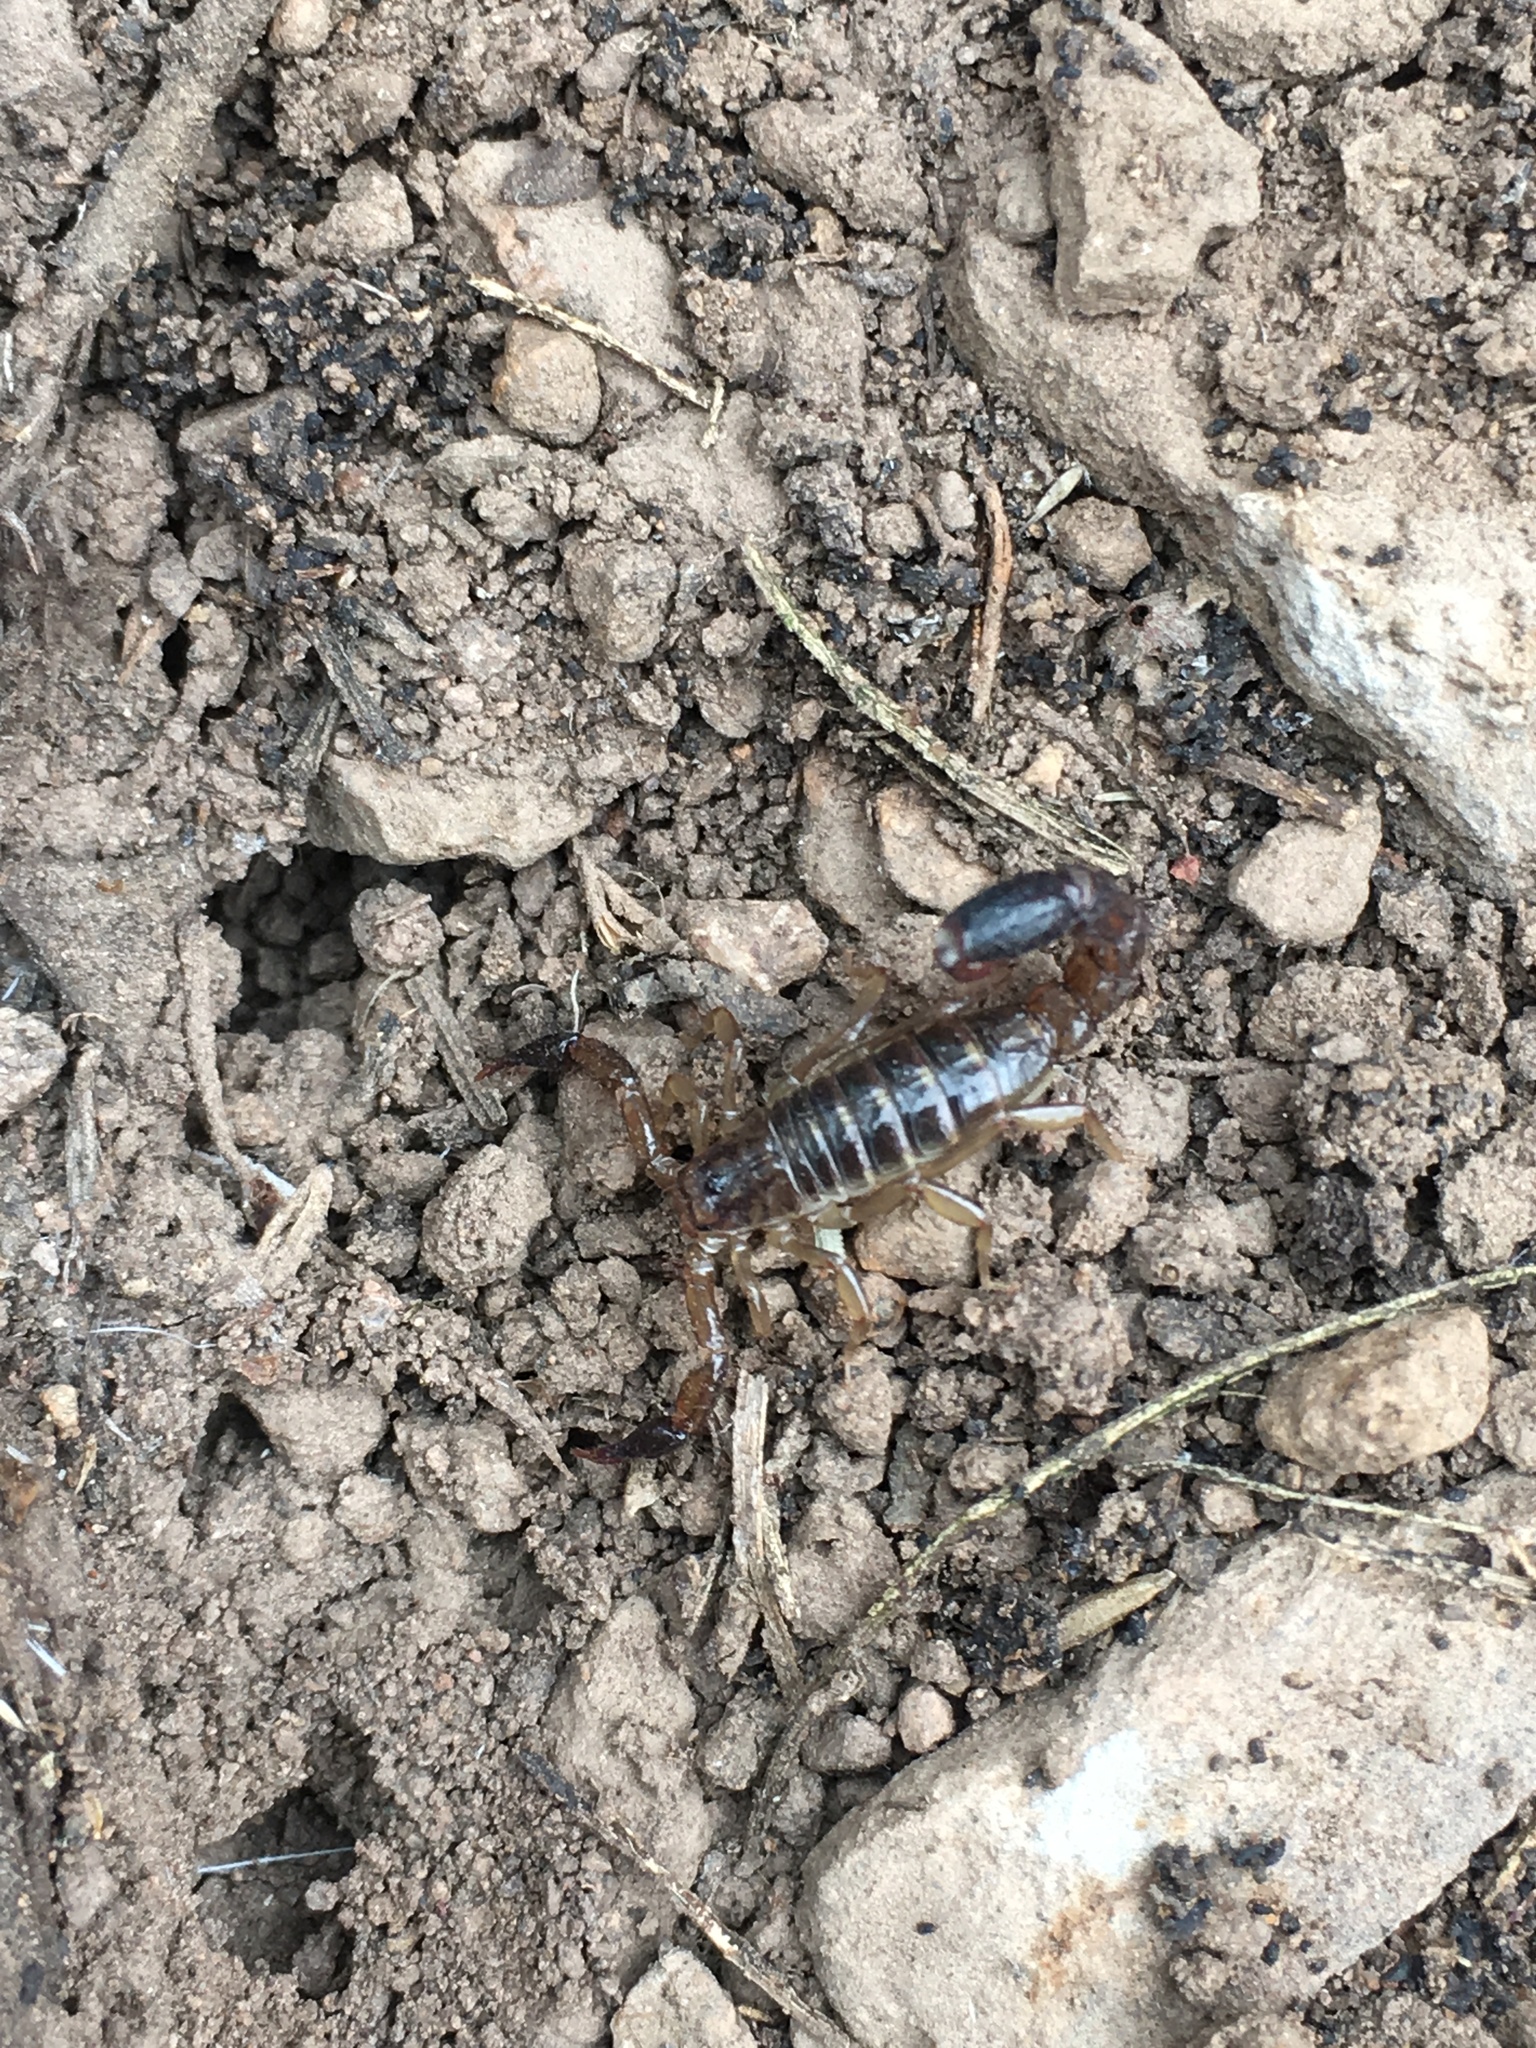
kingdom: Animalia
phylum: Arthropoda
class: Arachnida
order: Scorpiones
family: Vaejovidae
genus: Maaykuyak
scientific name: Maaykuyak waueri
